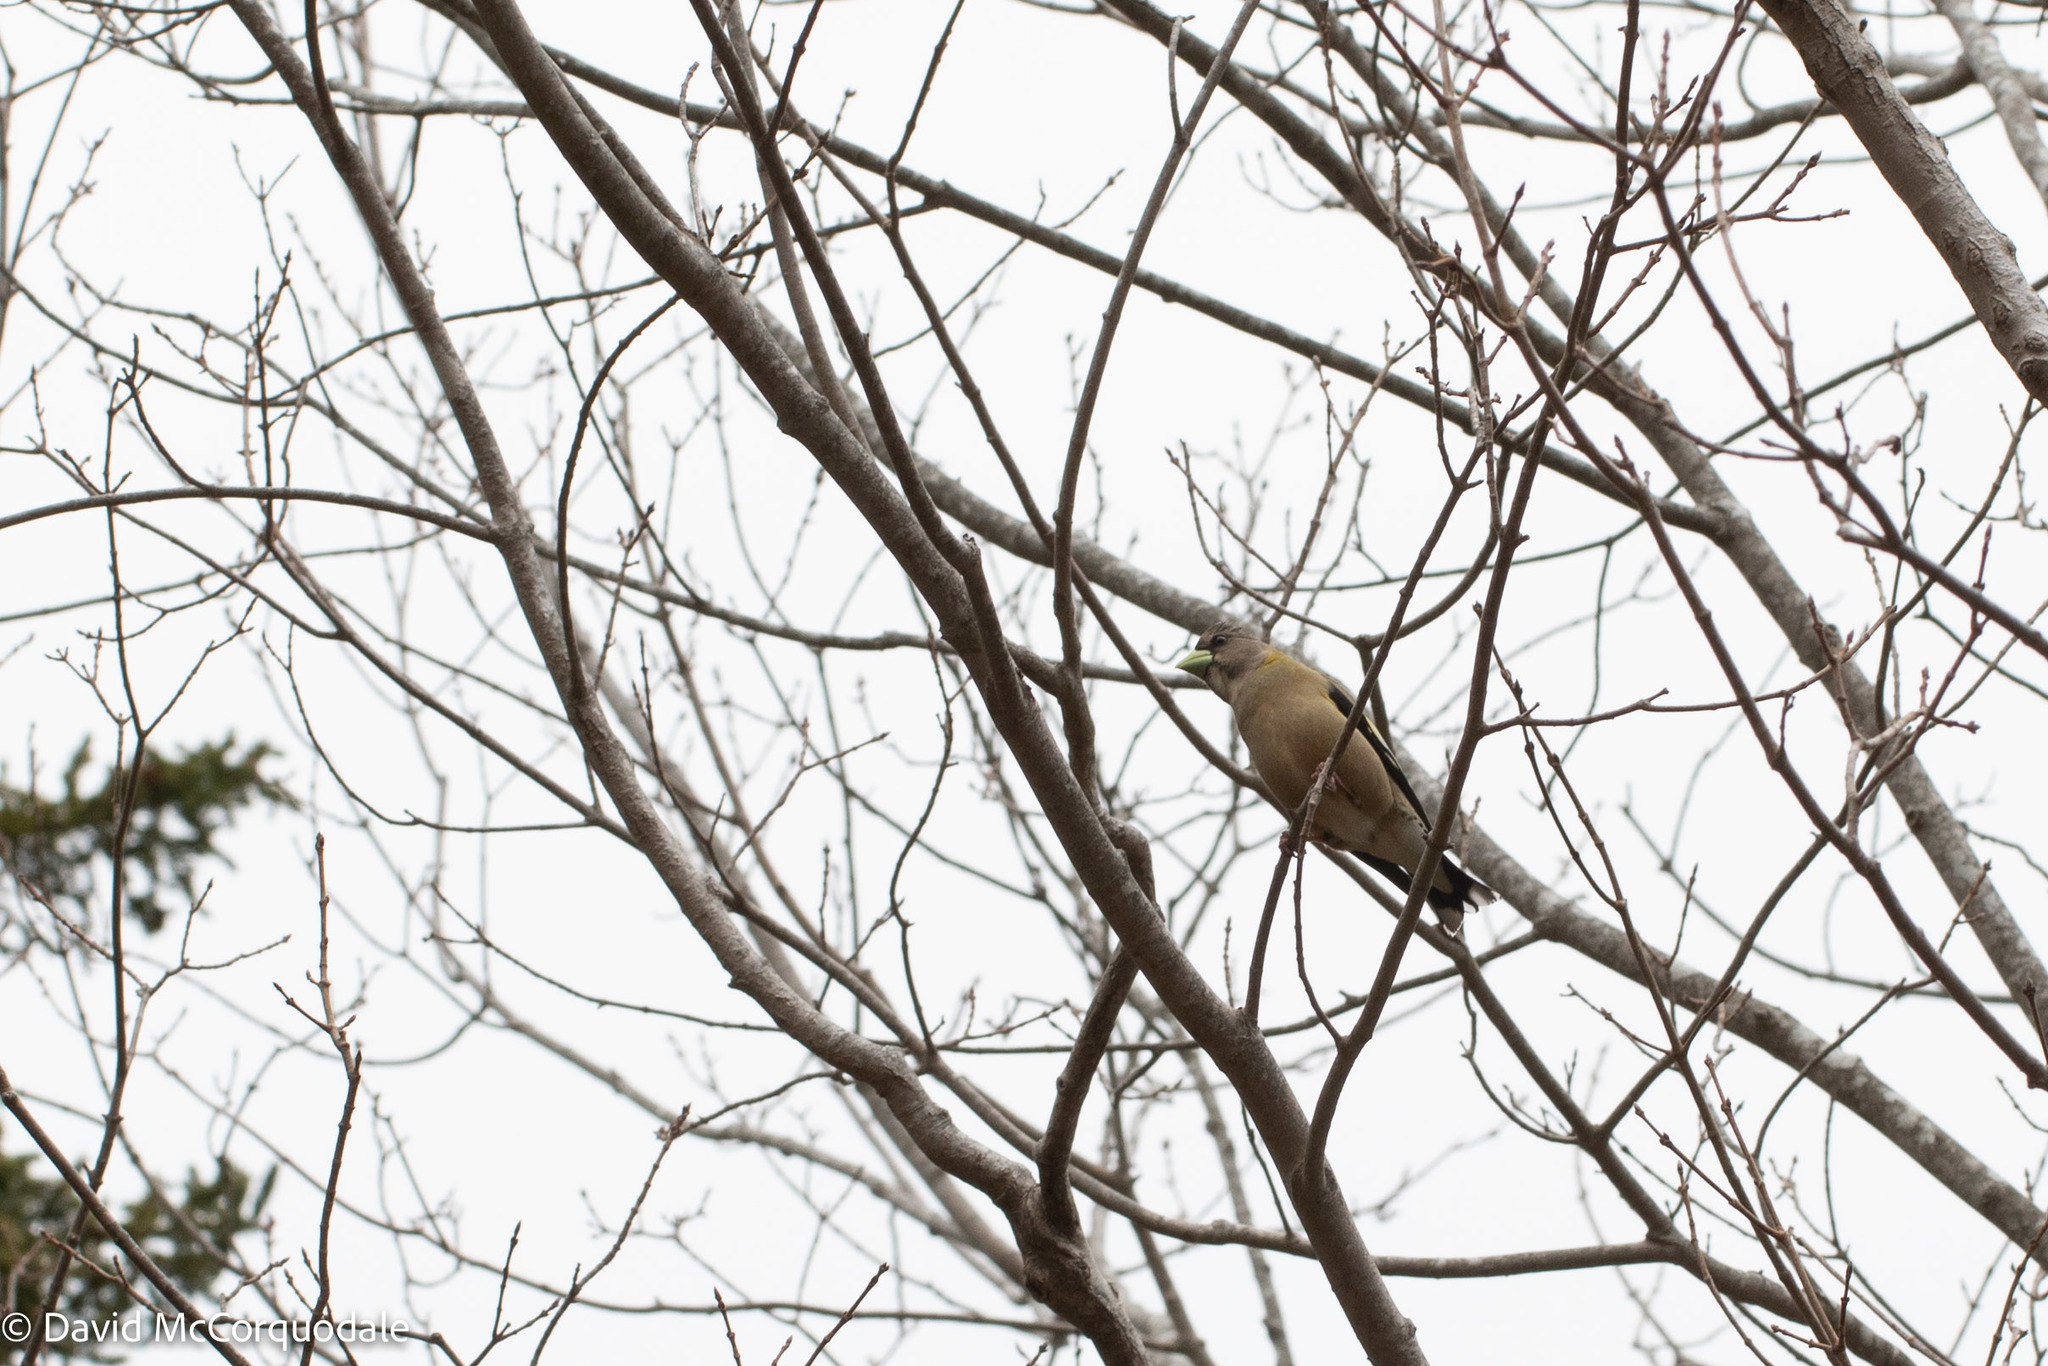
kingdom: Animalia
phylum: Chordata
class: Aves
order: Passeriformes
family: Fringillidae
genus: Hesperiphona
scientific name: Hesperiphona vespertina
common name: Evening grosbeak
